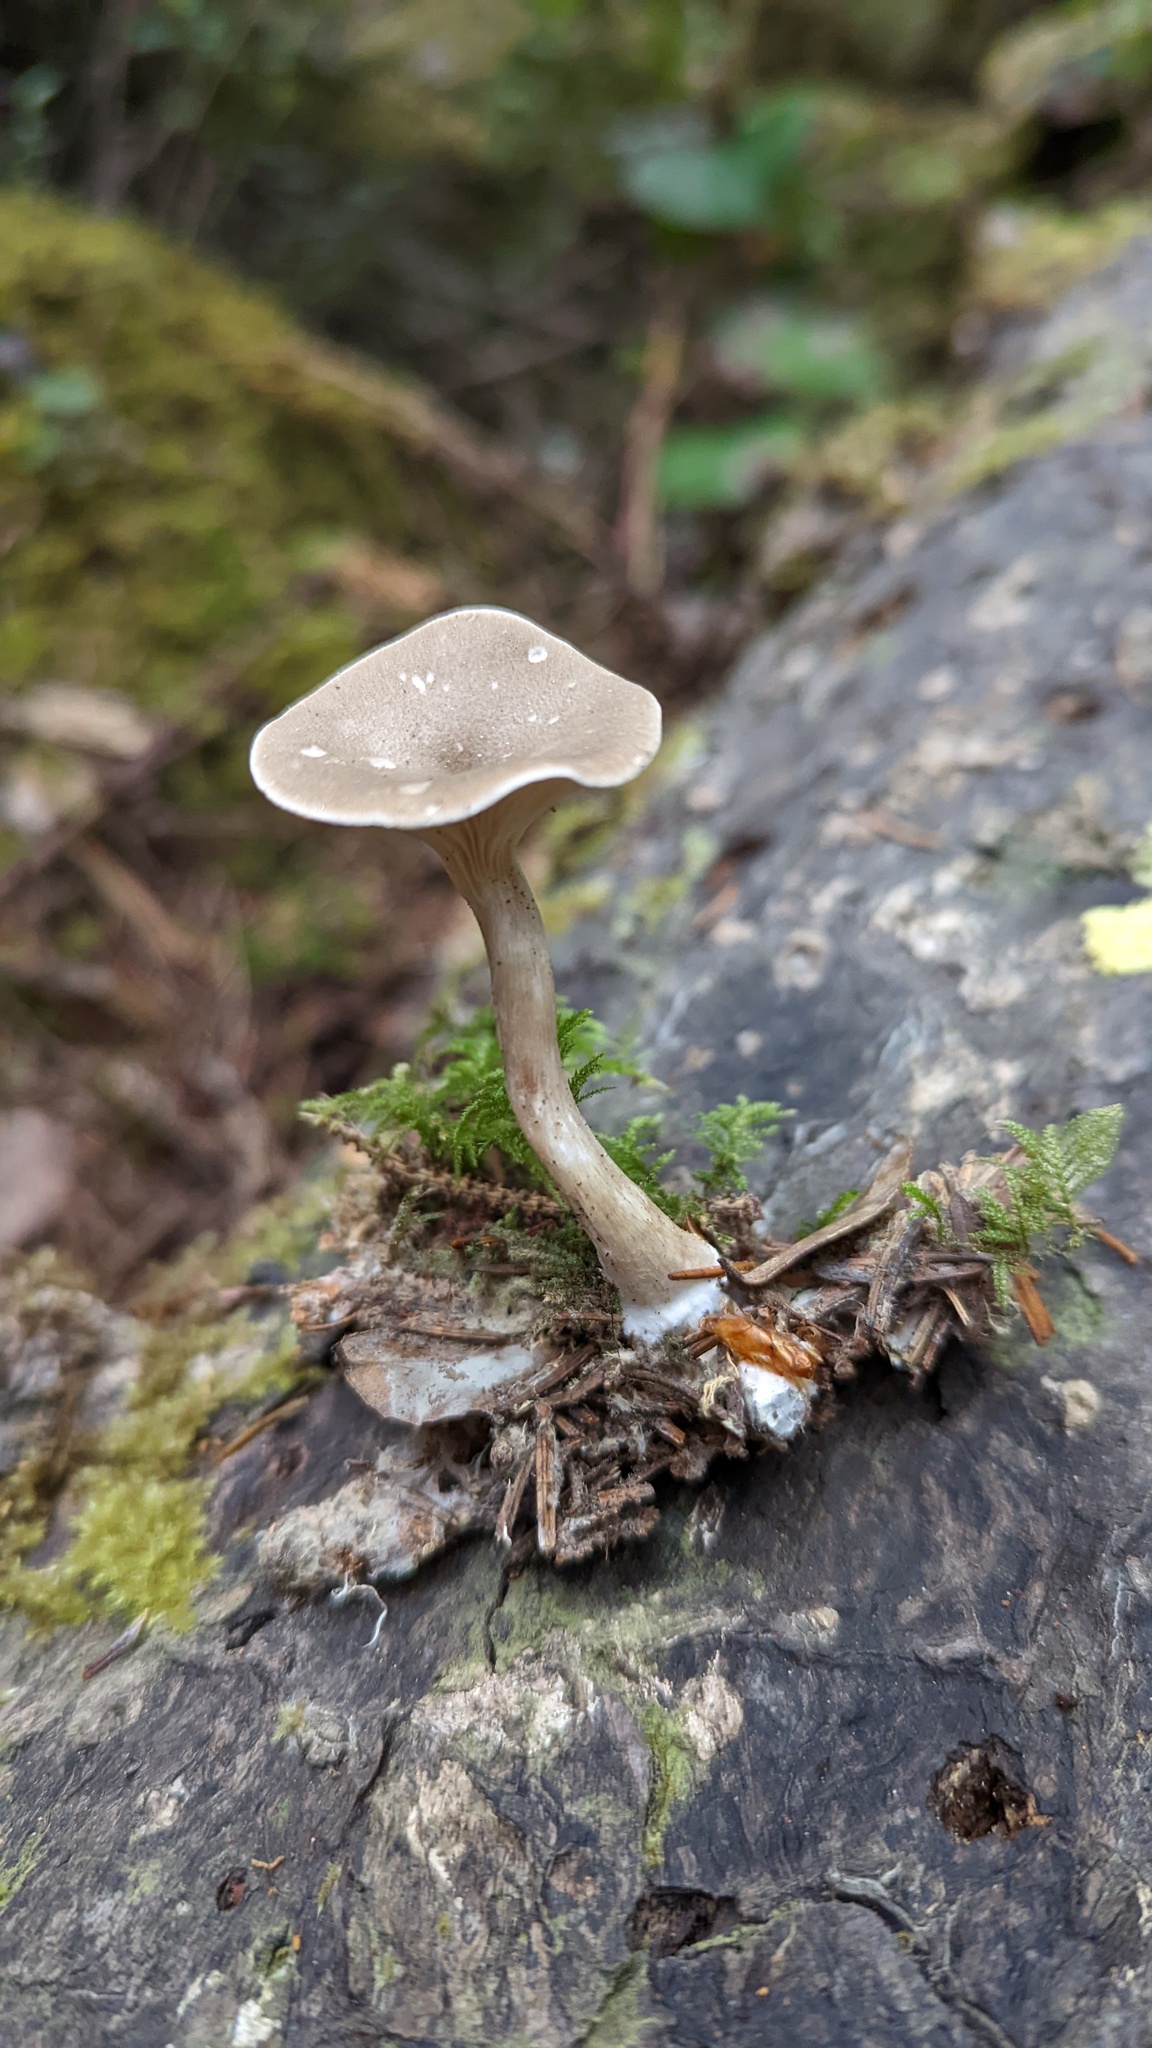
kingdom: Fungi
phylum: Basidiomycota
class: Agaricomycetes
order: Agaricales
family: Hygrophoraceae
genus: Ampulloclitocybe
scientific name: Ampulloclitocybe clavipes
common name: Club foot
